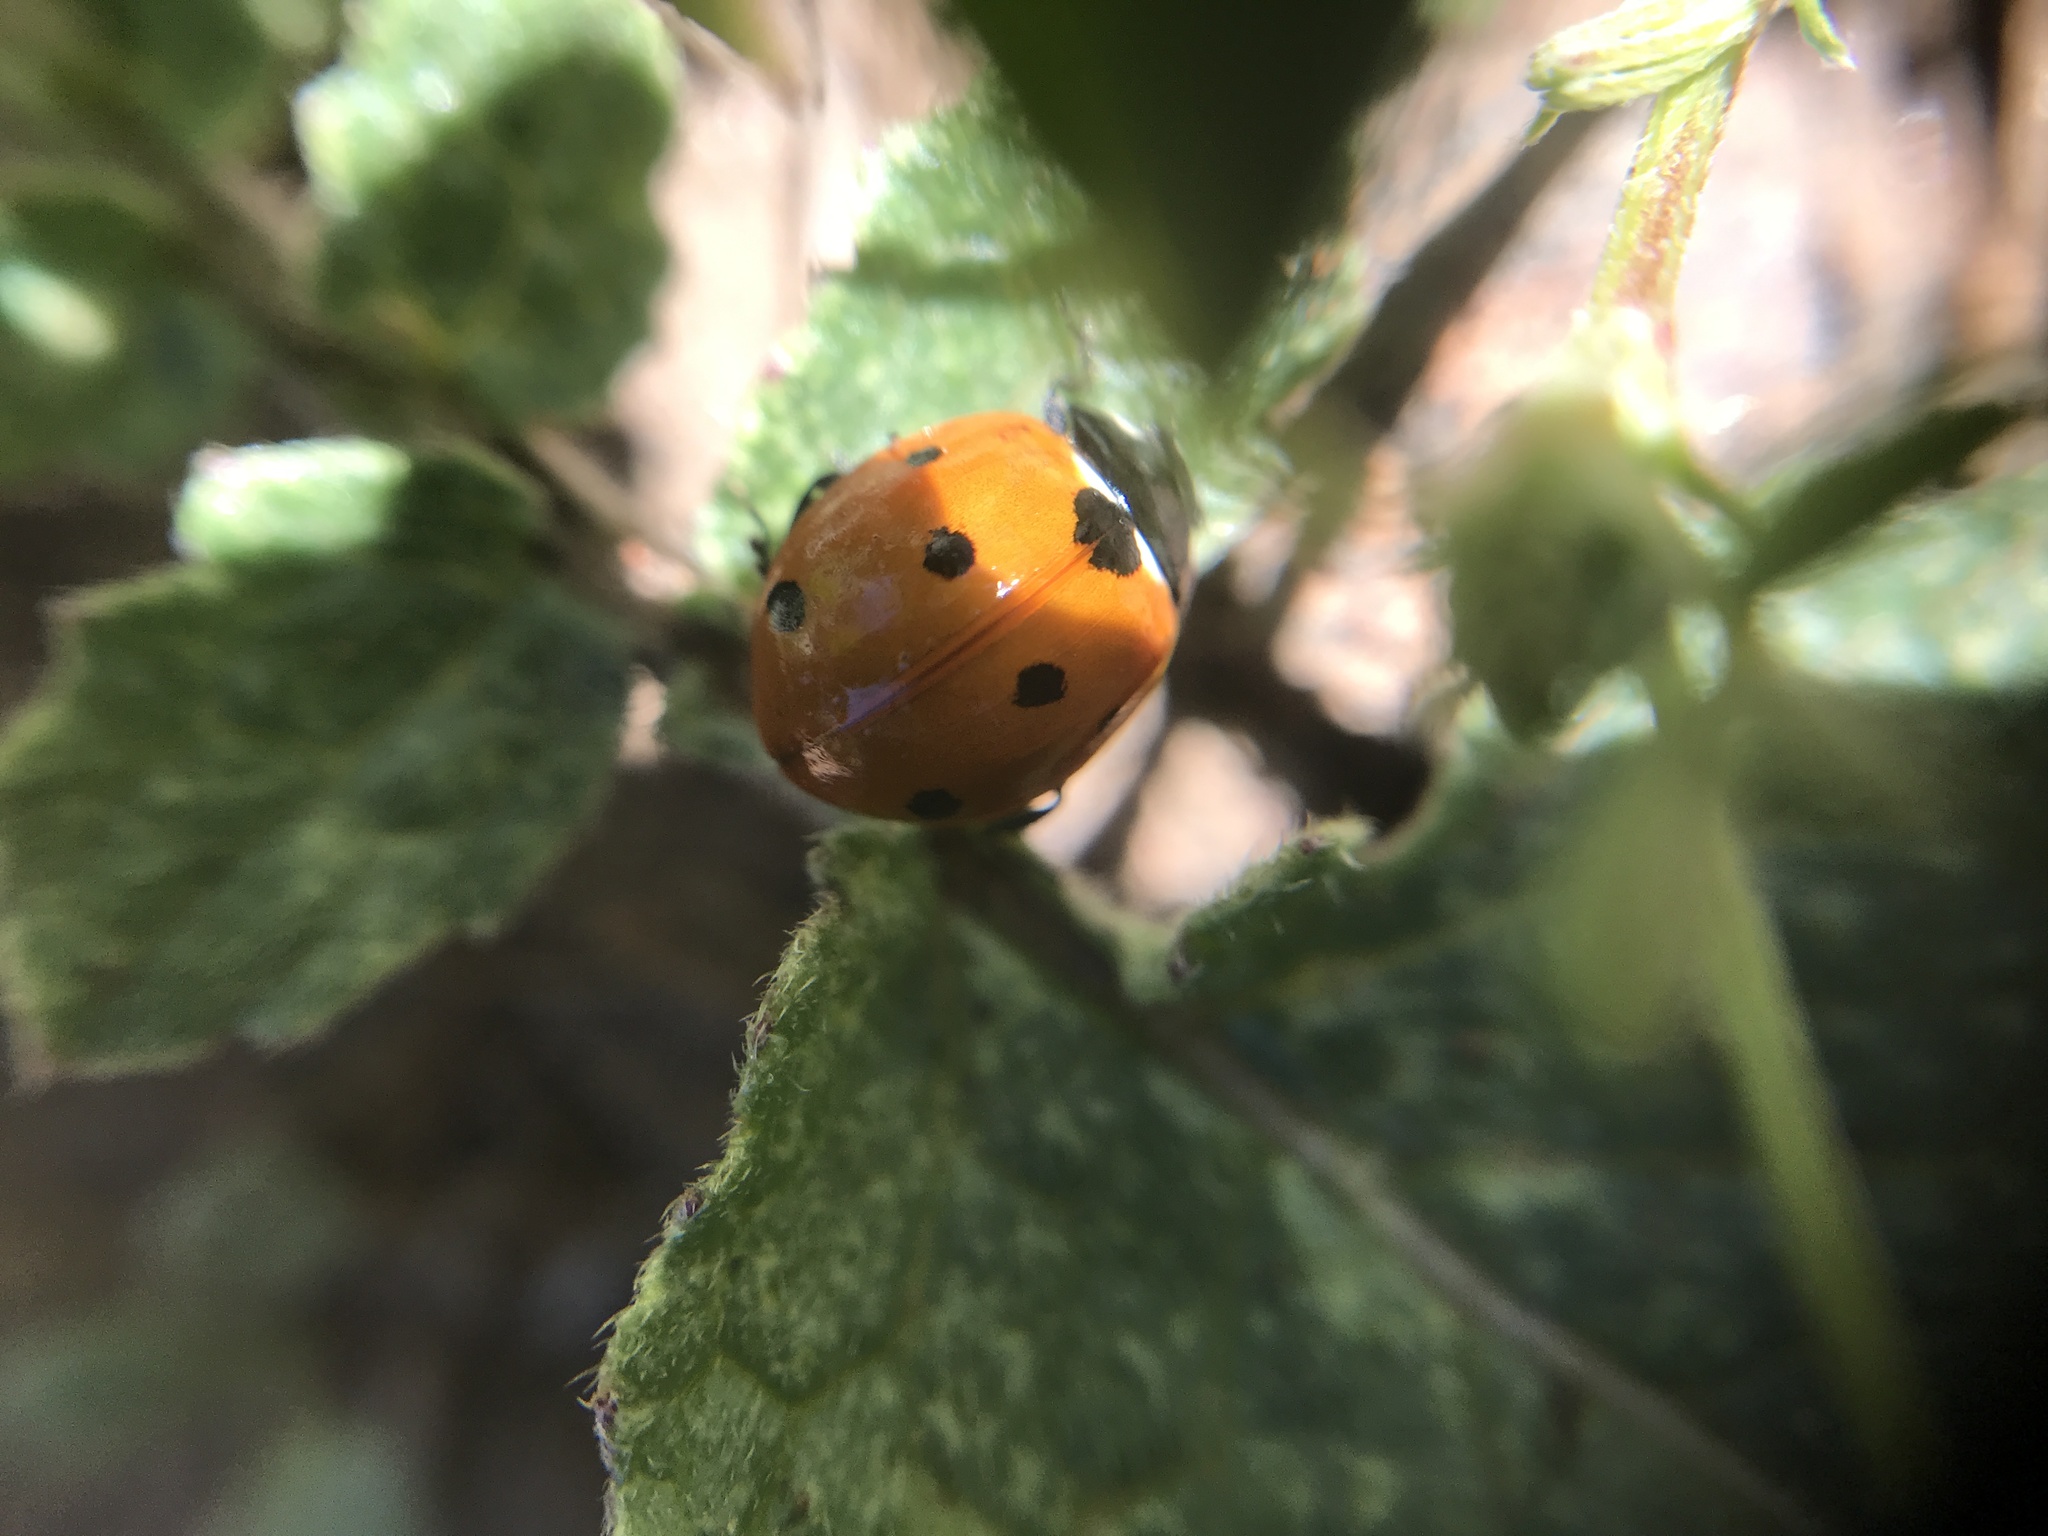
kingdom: Animalia
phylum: Arthropoda
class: Insecta
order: Coleoptera
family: Coccinellidae
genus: Coccinella
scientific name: Coccinella septempunctata
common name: Sevenspotted lady beetle
